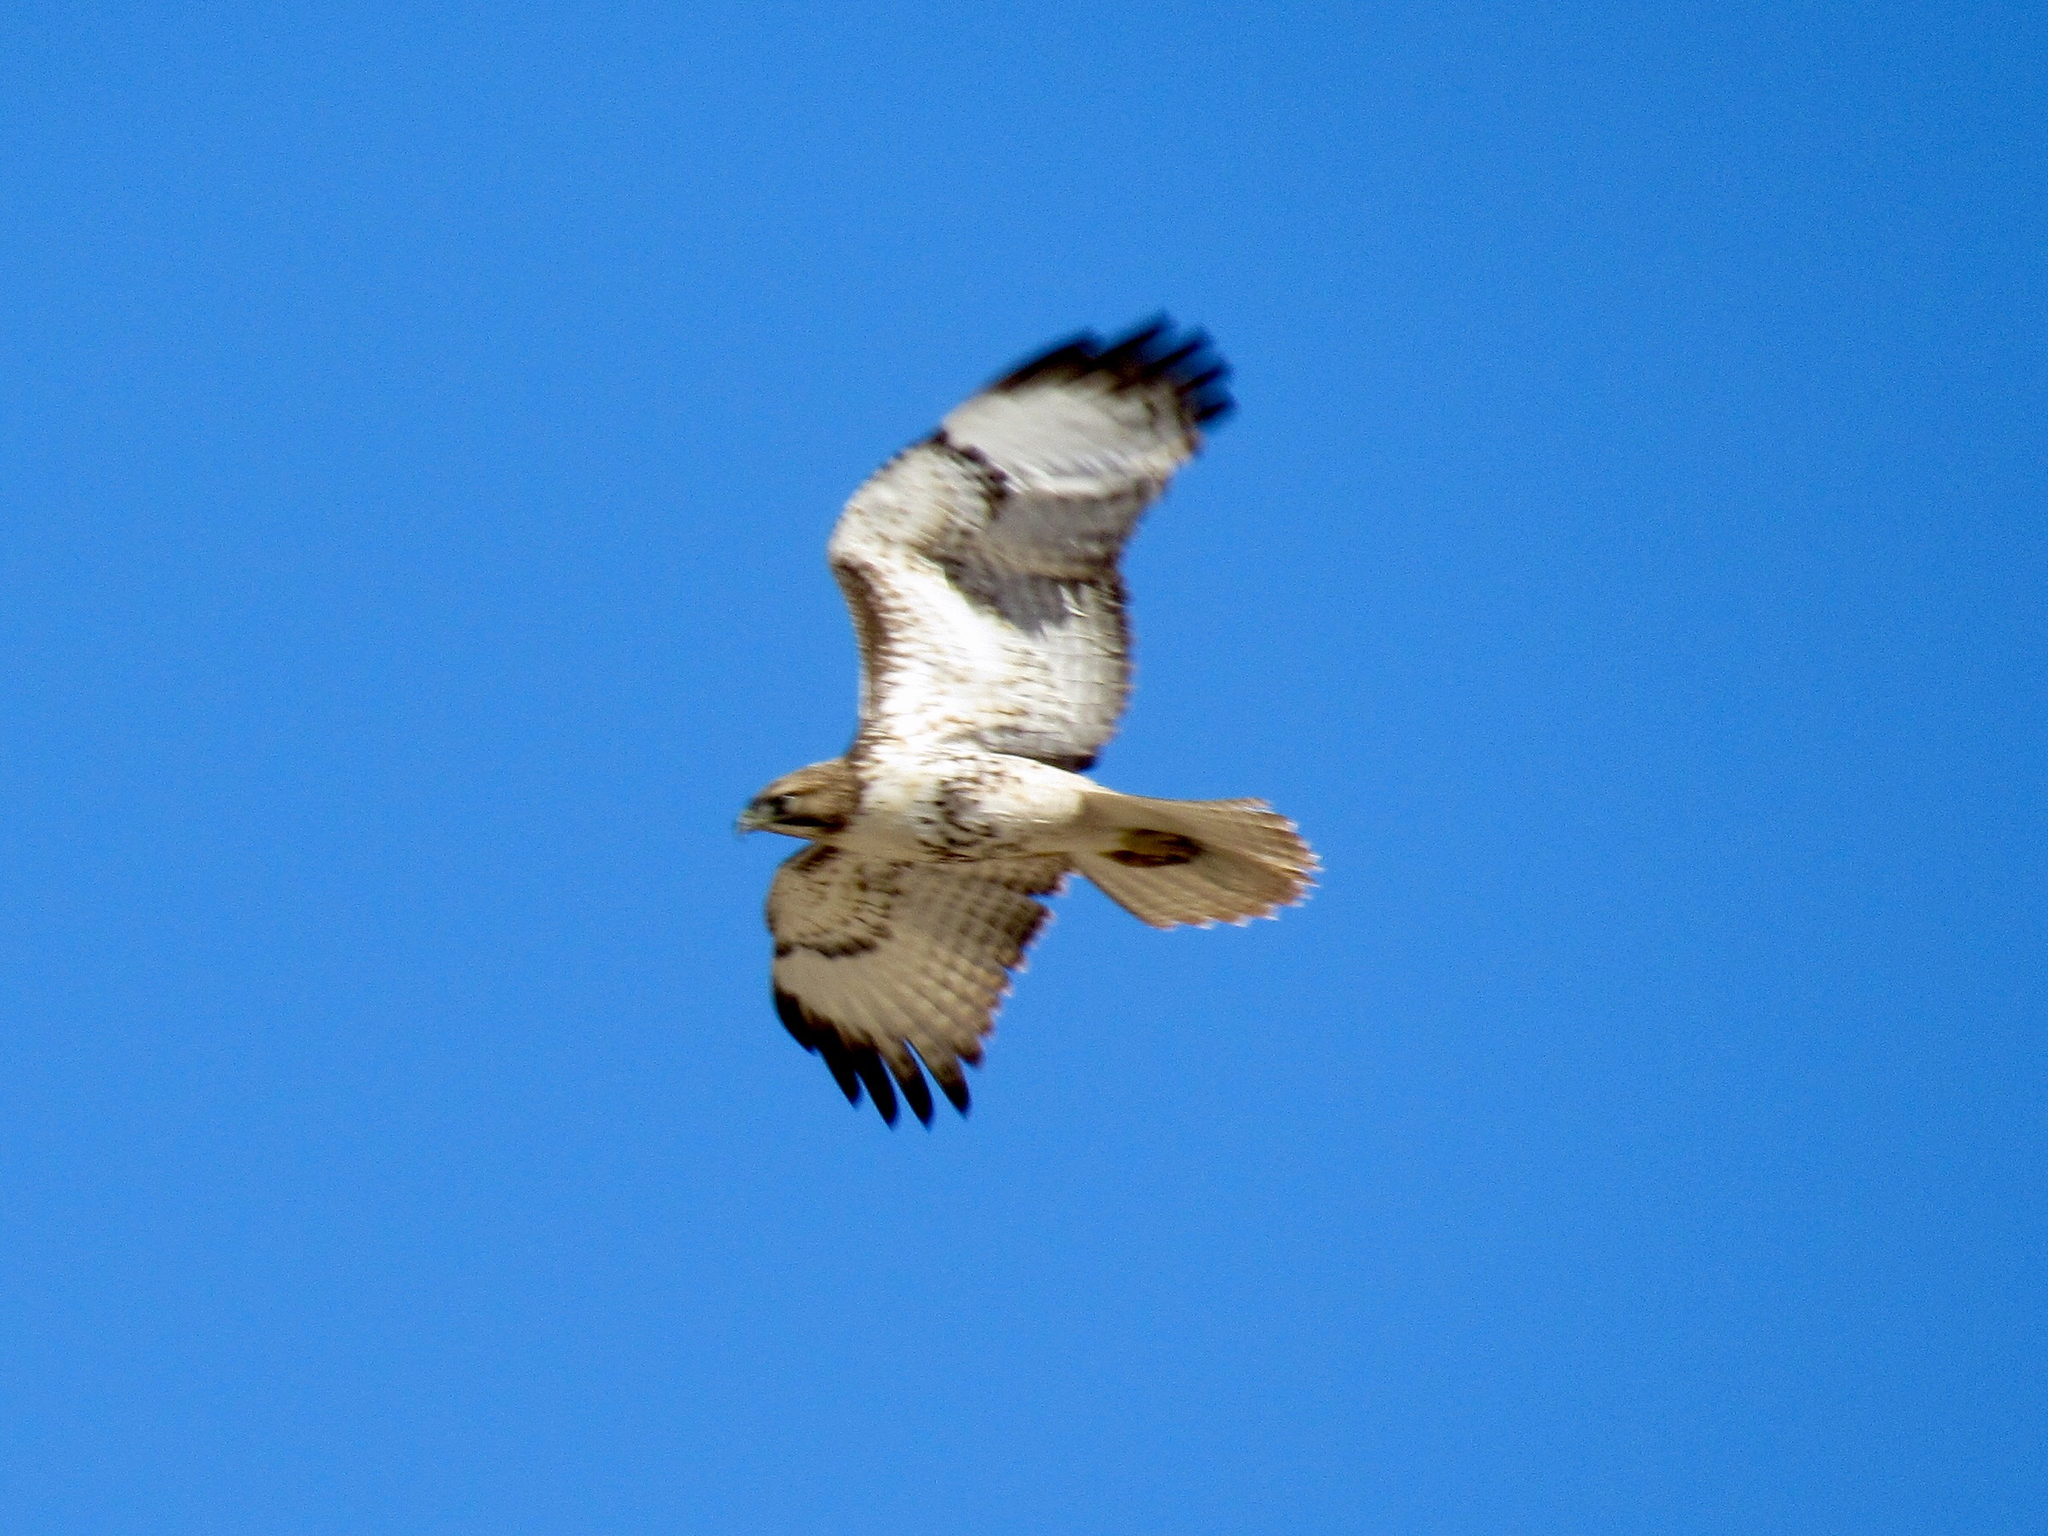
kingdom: Animalia
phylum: Chordata
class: Aves
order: Accipitriformes
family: Accipitridae
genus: Buteo
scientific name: Buteo jamaicensis
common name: Red-tailed hawk
